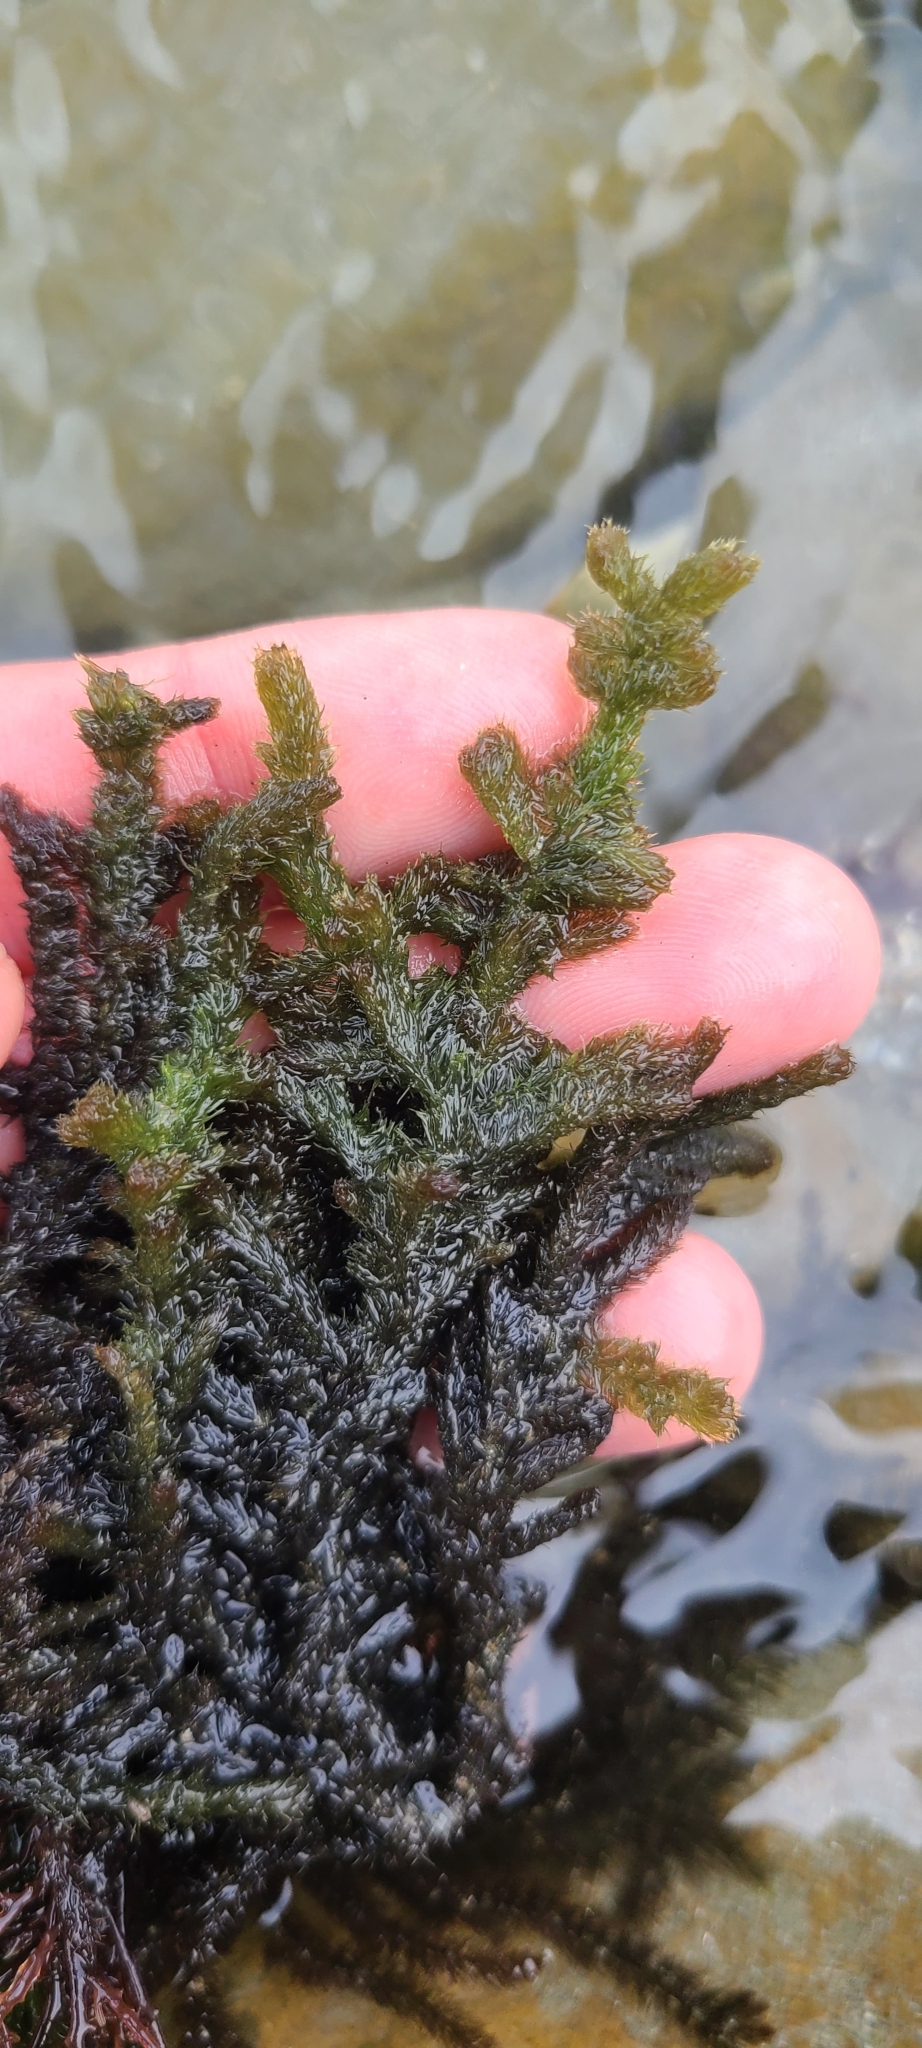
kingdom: Plantae
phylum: Rhodophyta
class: Florideophyceae
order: Ceramiales
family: Rhodomelaceae
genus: Echinothamnion
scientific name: Echinothamnion lyallii
